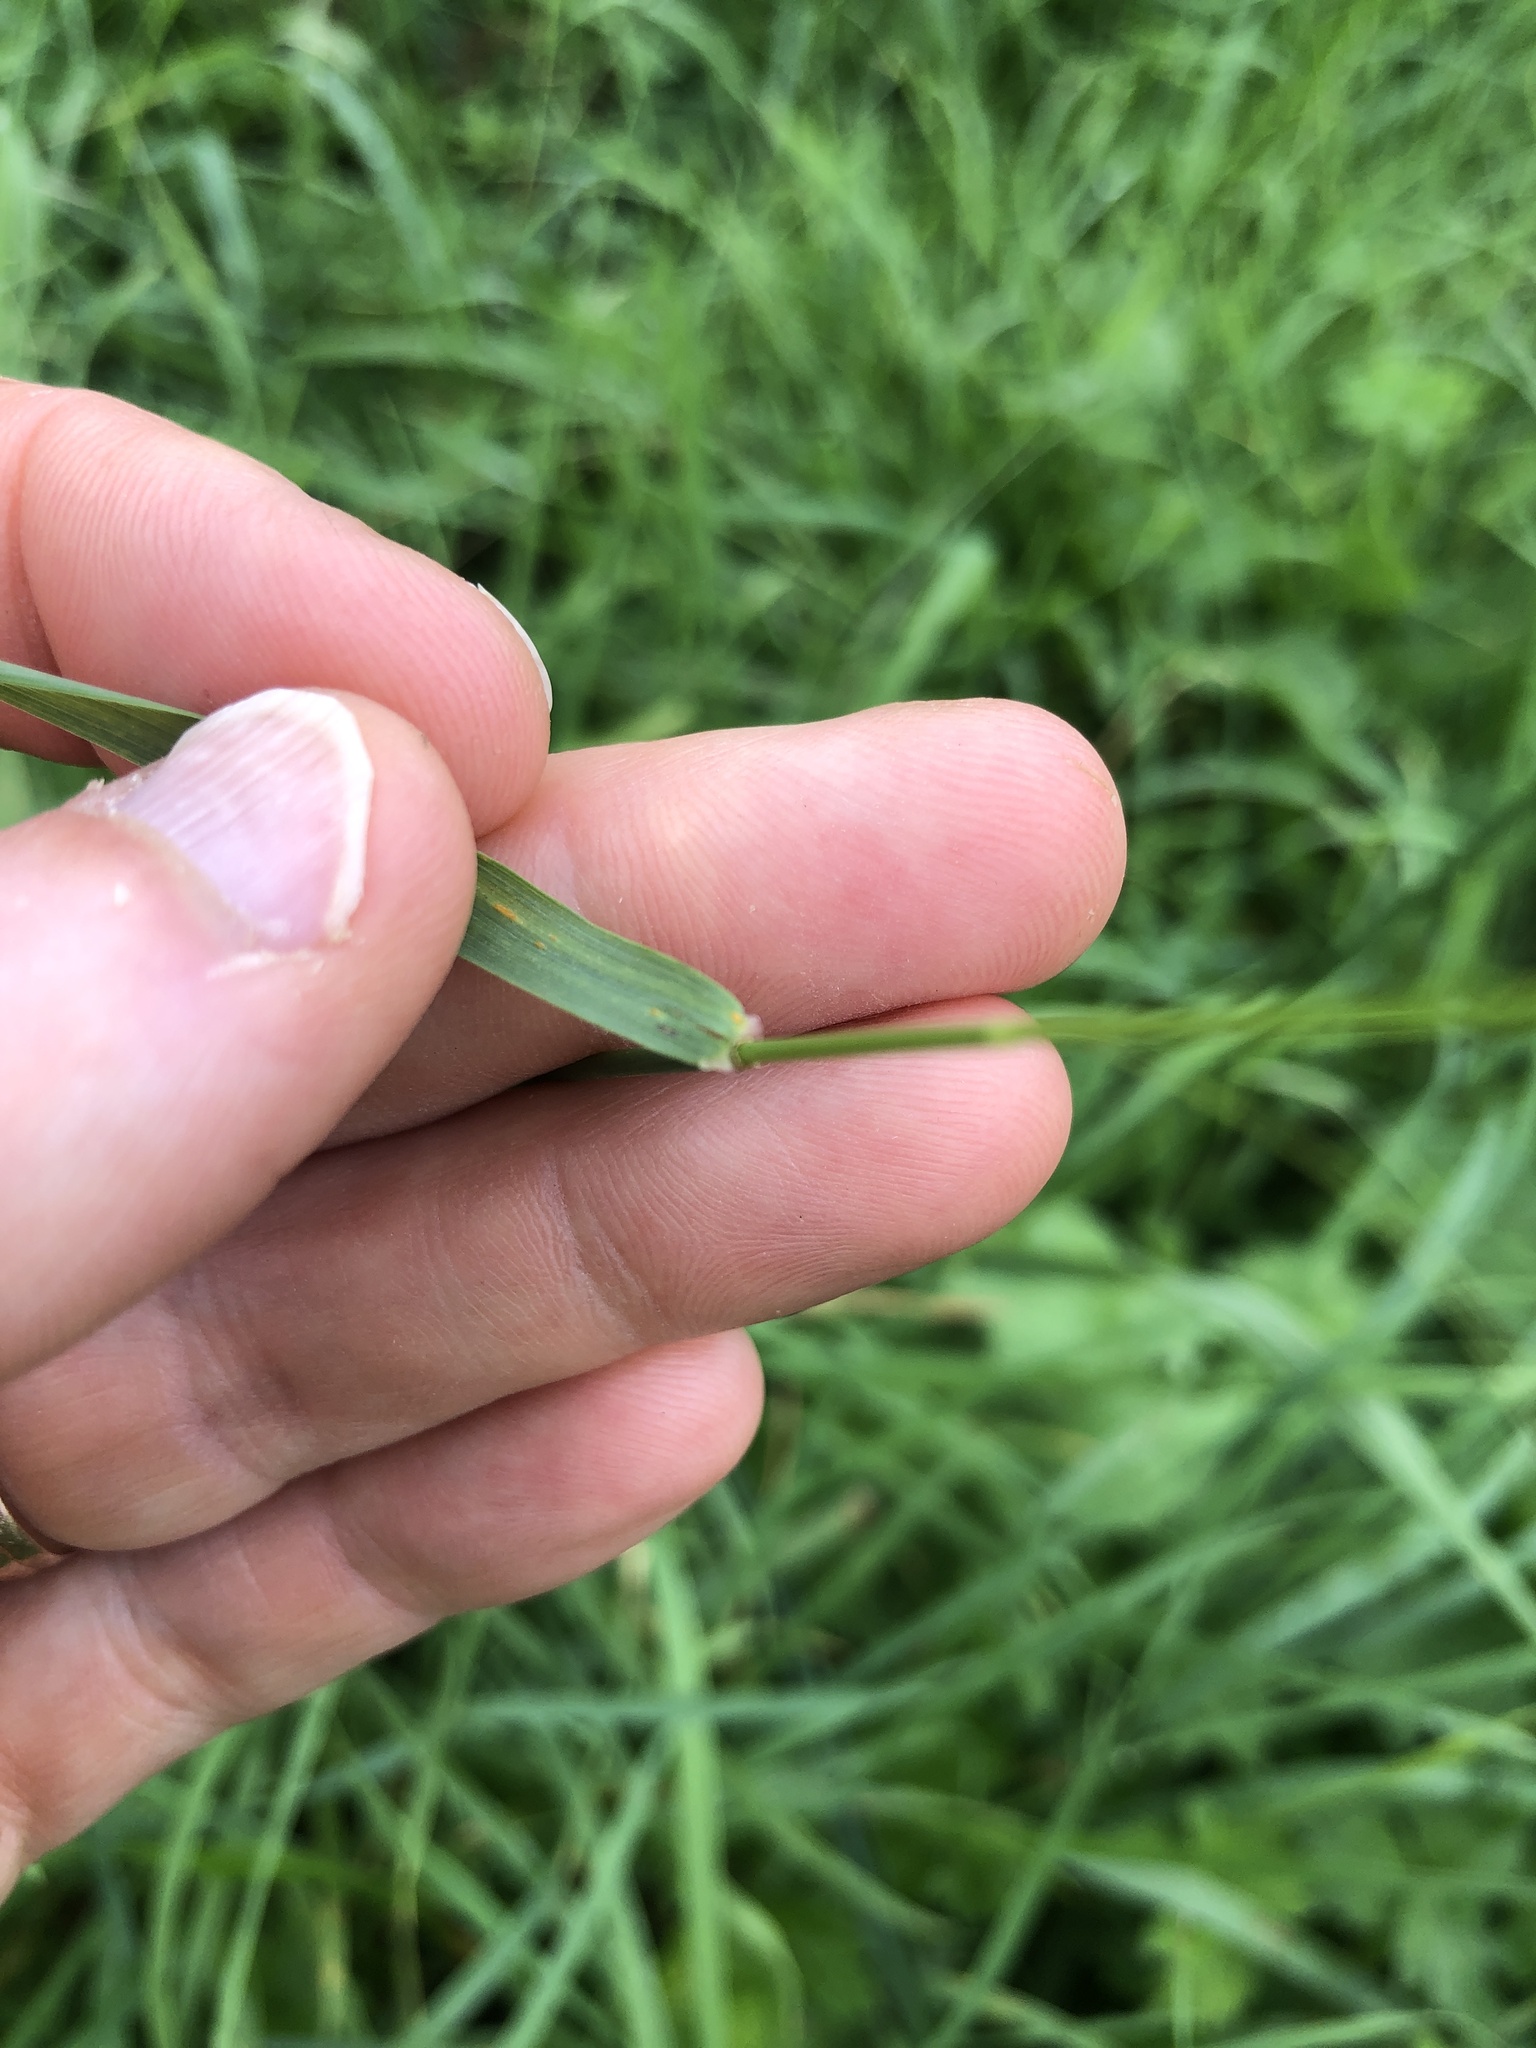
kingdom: Plantae
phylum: Tracheophyta
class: Liliopsida
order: Poales
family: Poaceae
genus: Arrhenatherum
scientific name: Arrhenatherum elatius
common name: Tall oatgrass
